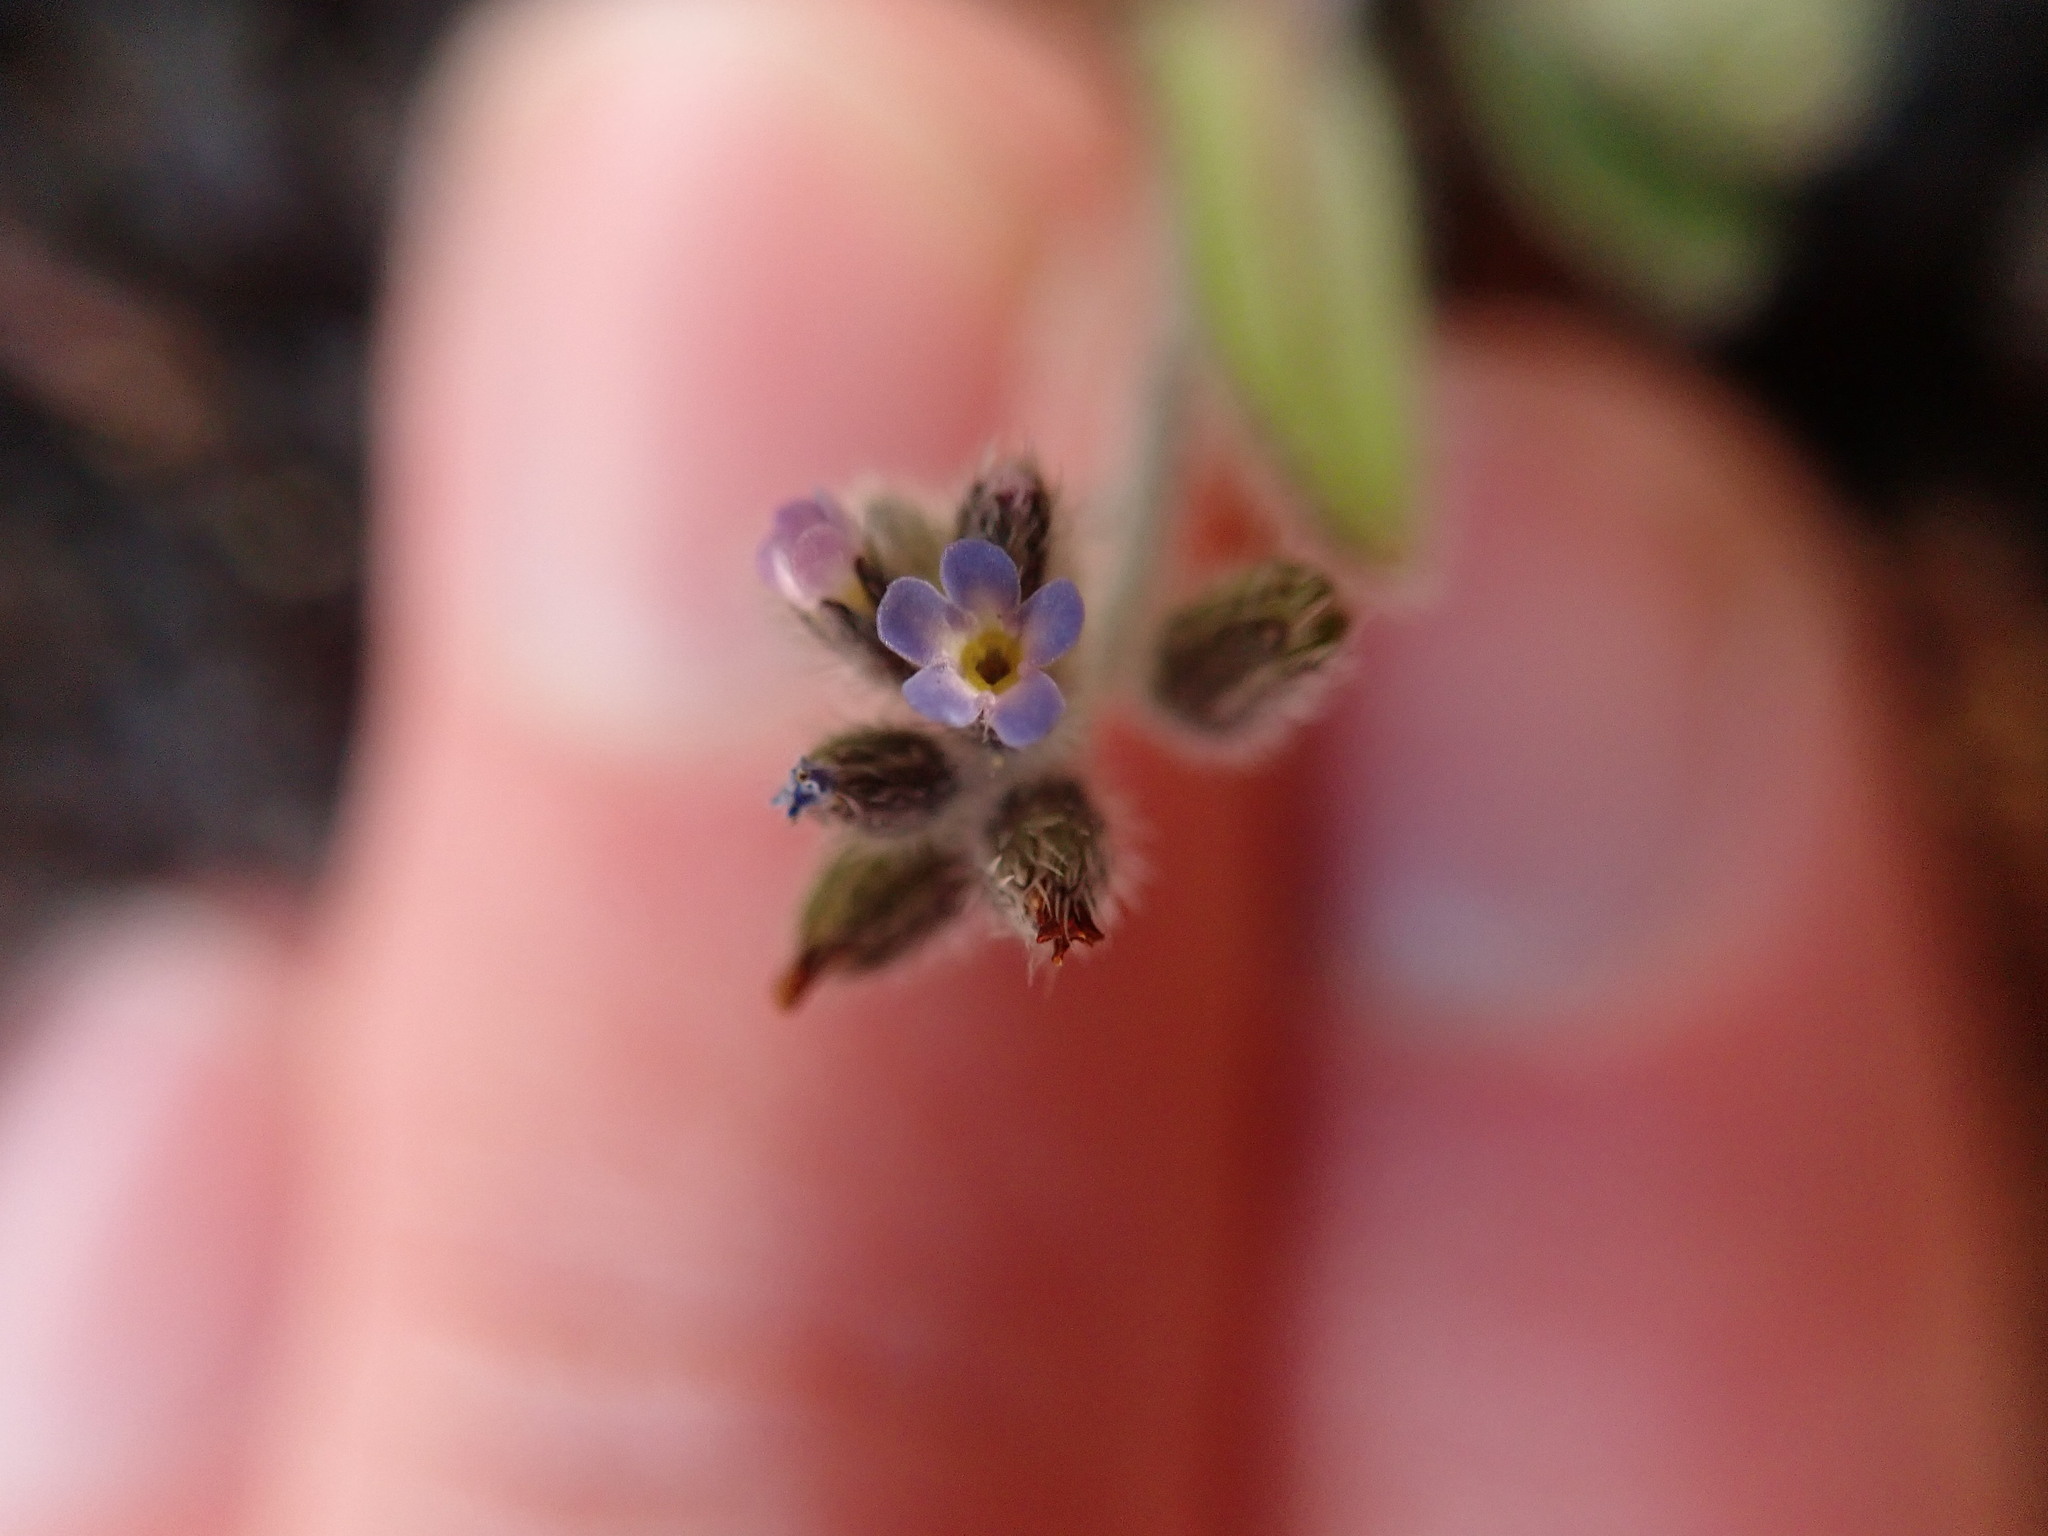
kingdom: Plantae
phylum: Tracheophyta
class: Magnoliopsida
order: Boraginales
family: Boraginaceae
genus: Myosotis
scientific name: Myosotis ramosissima
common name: Early forget-me-not
